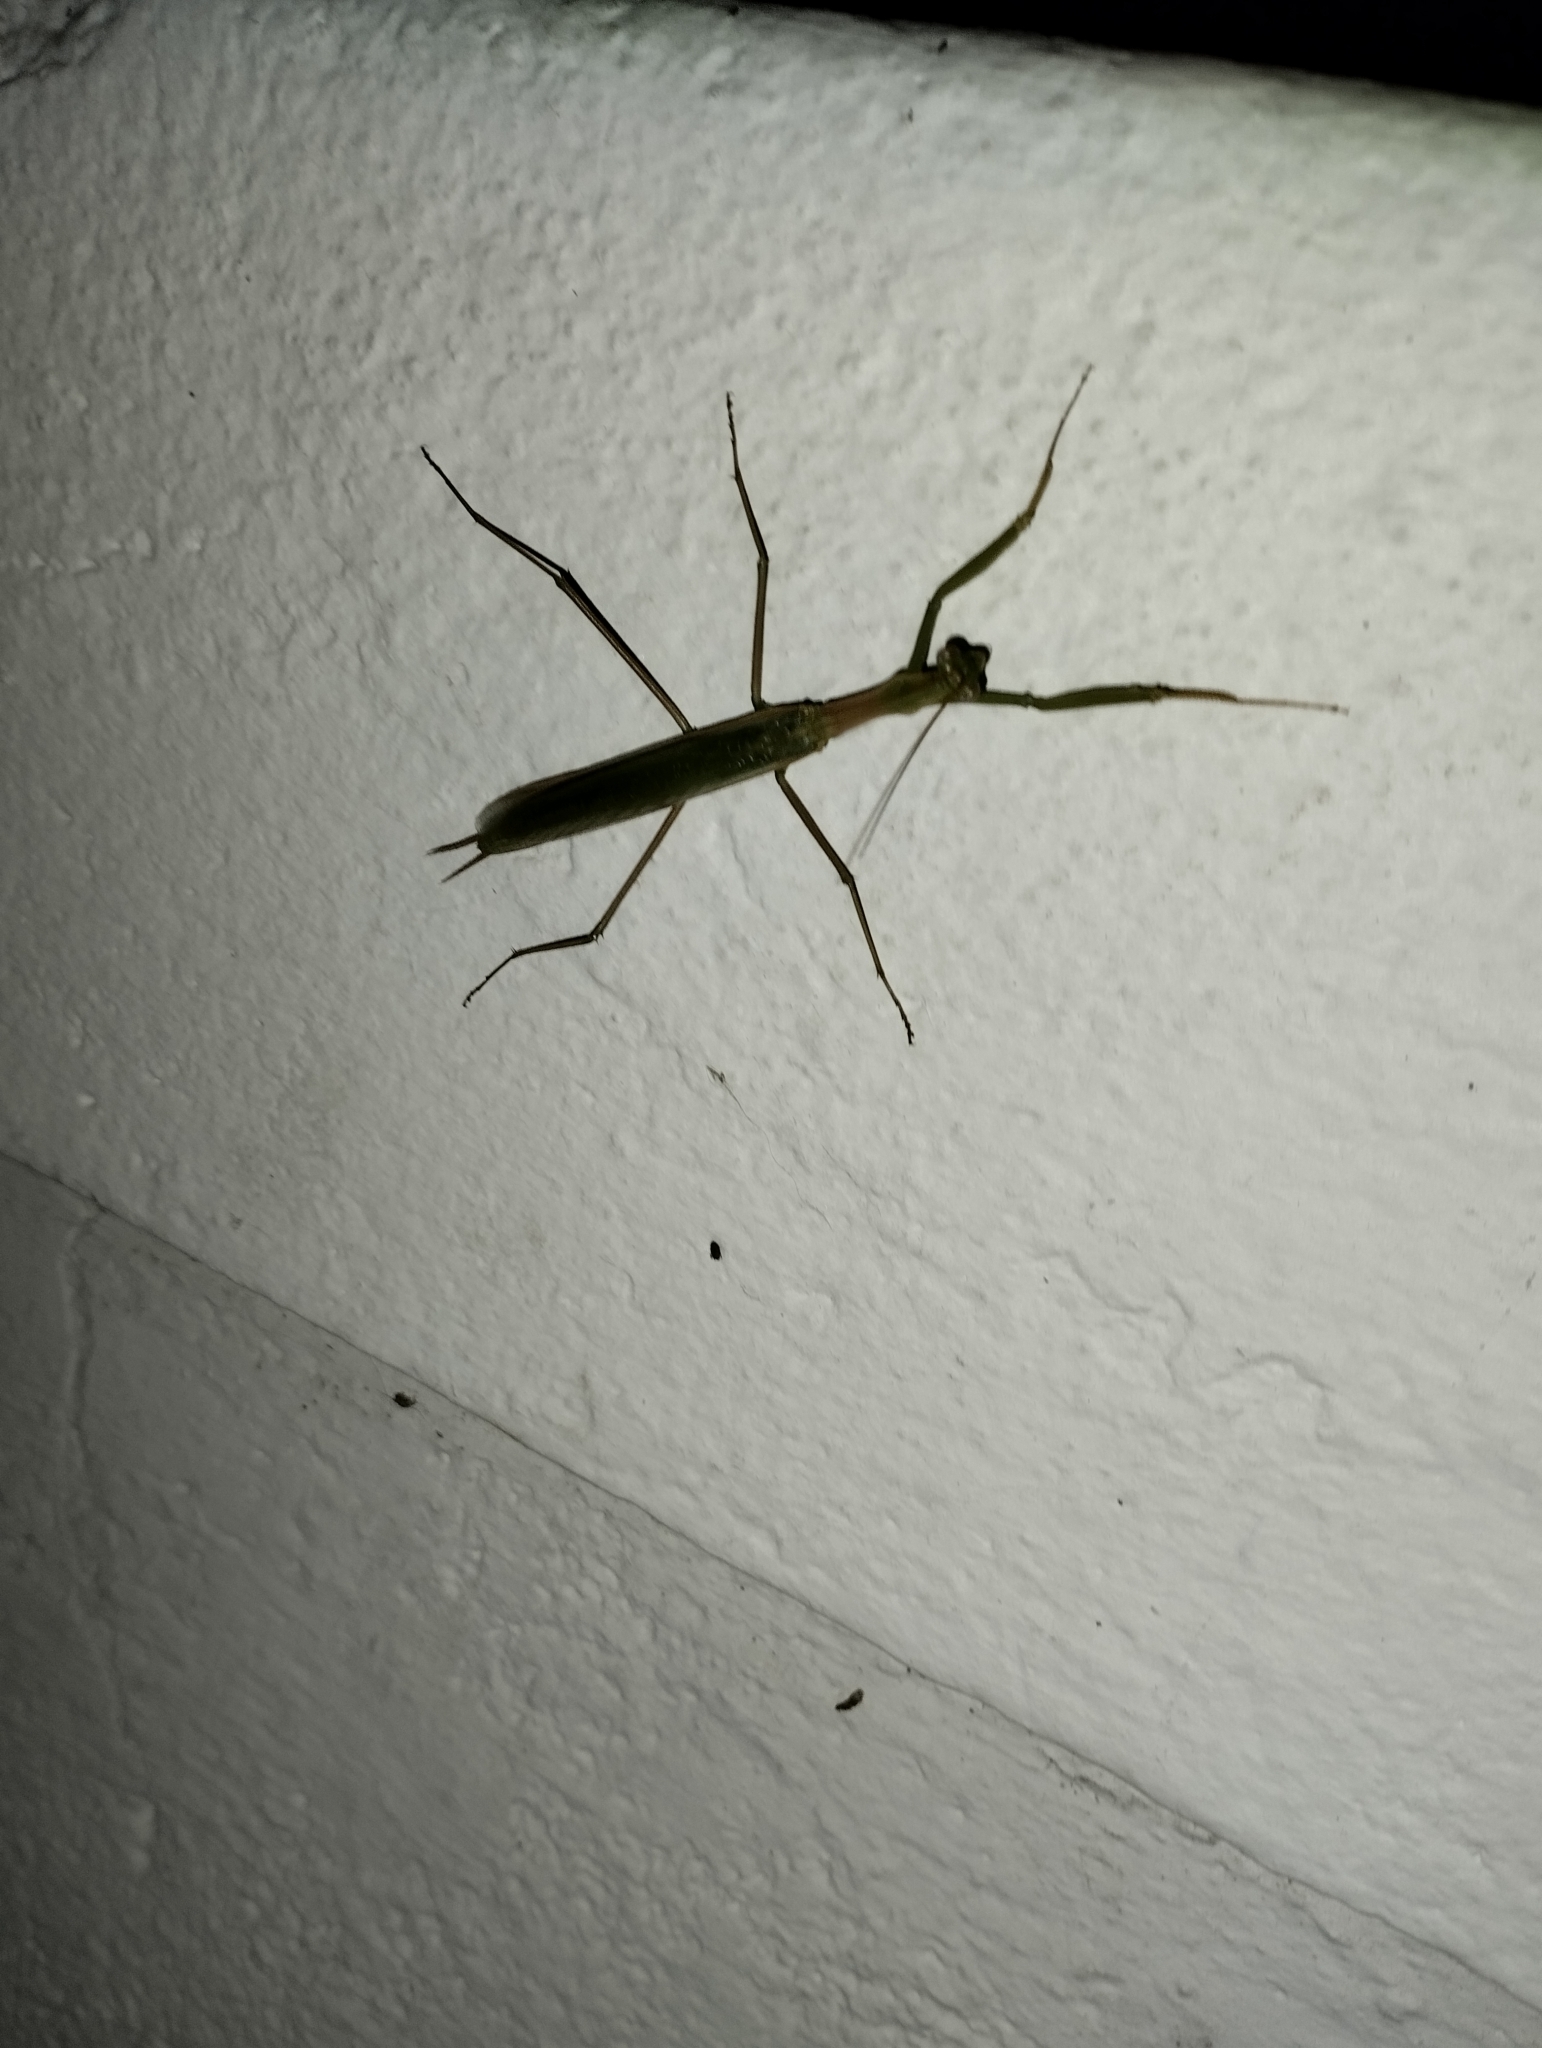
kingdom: Animalia
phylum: Arthropoda
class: Insecta
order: Mantodea
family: Coptopterygidae
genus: Coptopteryx
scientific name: Coptopteryx argentina
